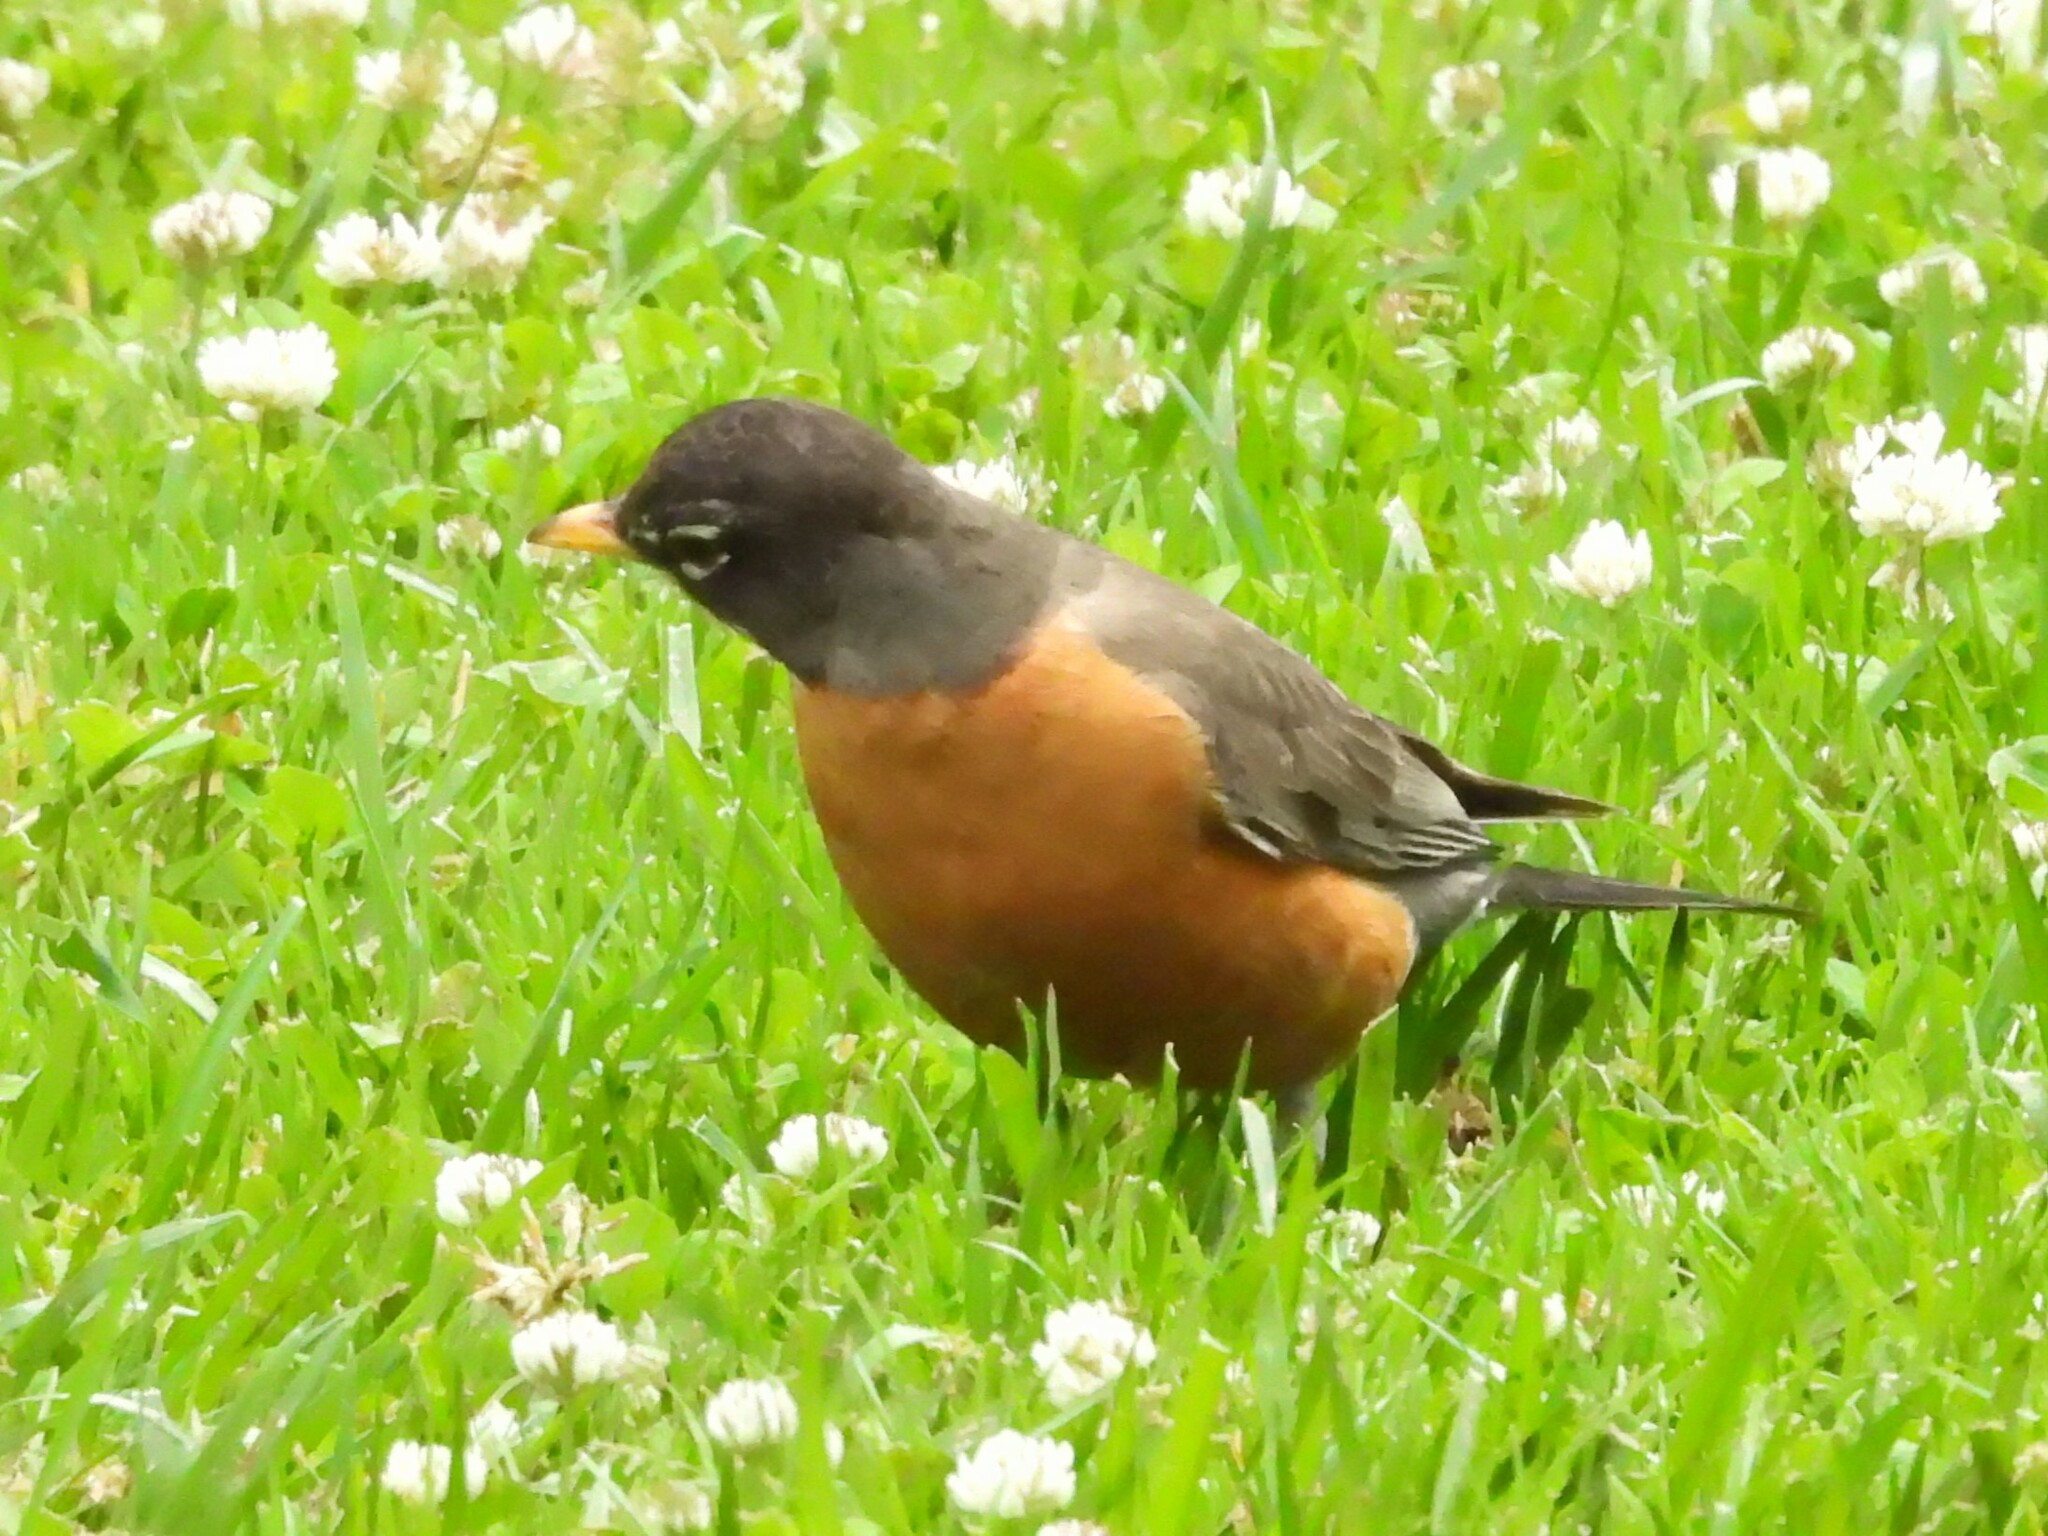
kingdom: Animalia
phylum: Chordata
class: Aves
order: Passeriformes
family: Turdidae
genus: Turdus
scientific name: Turdus migratorius
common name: American robin
